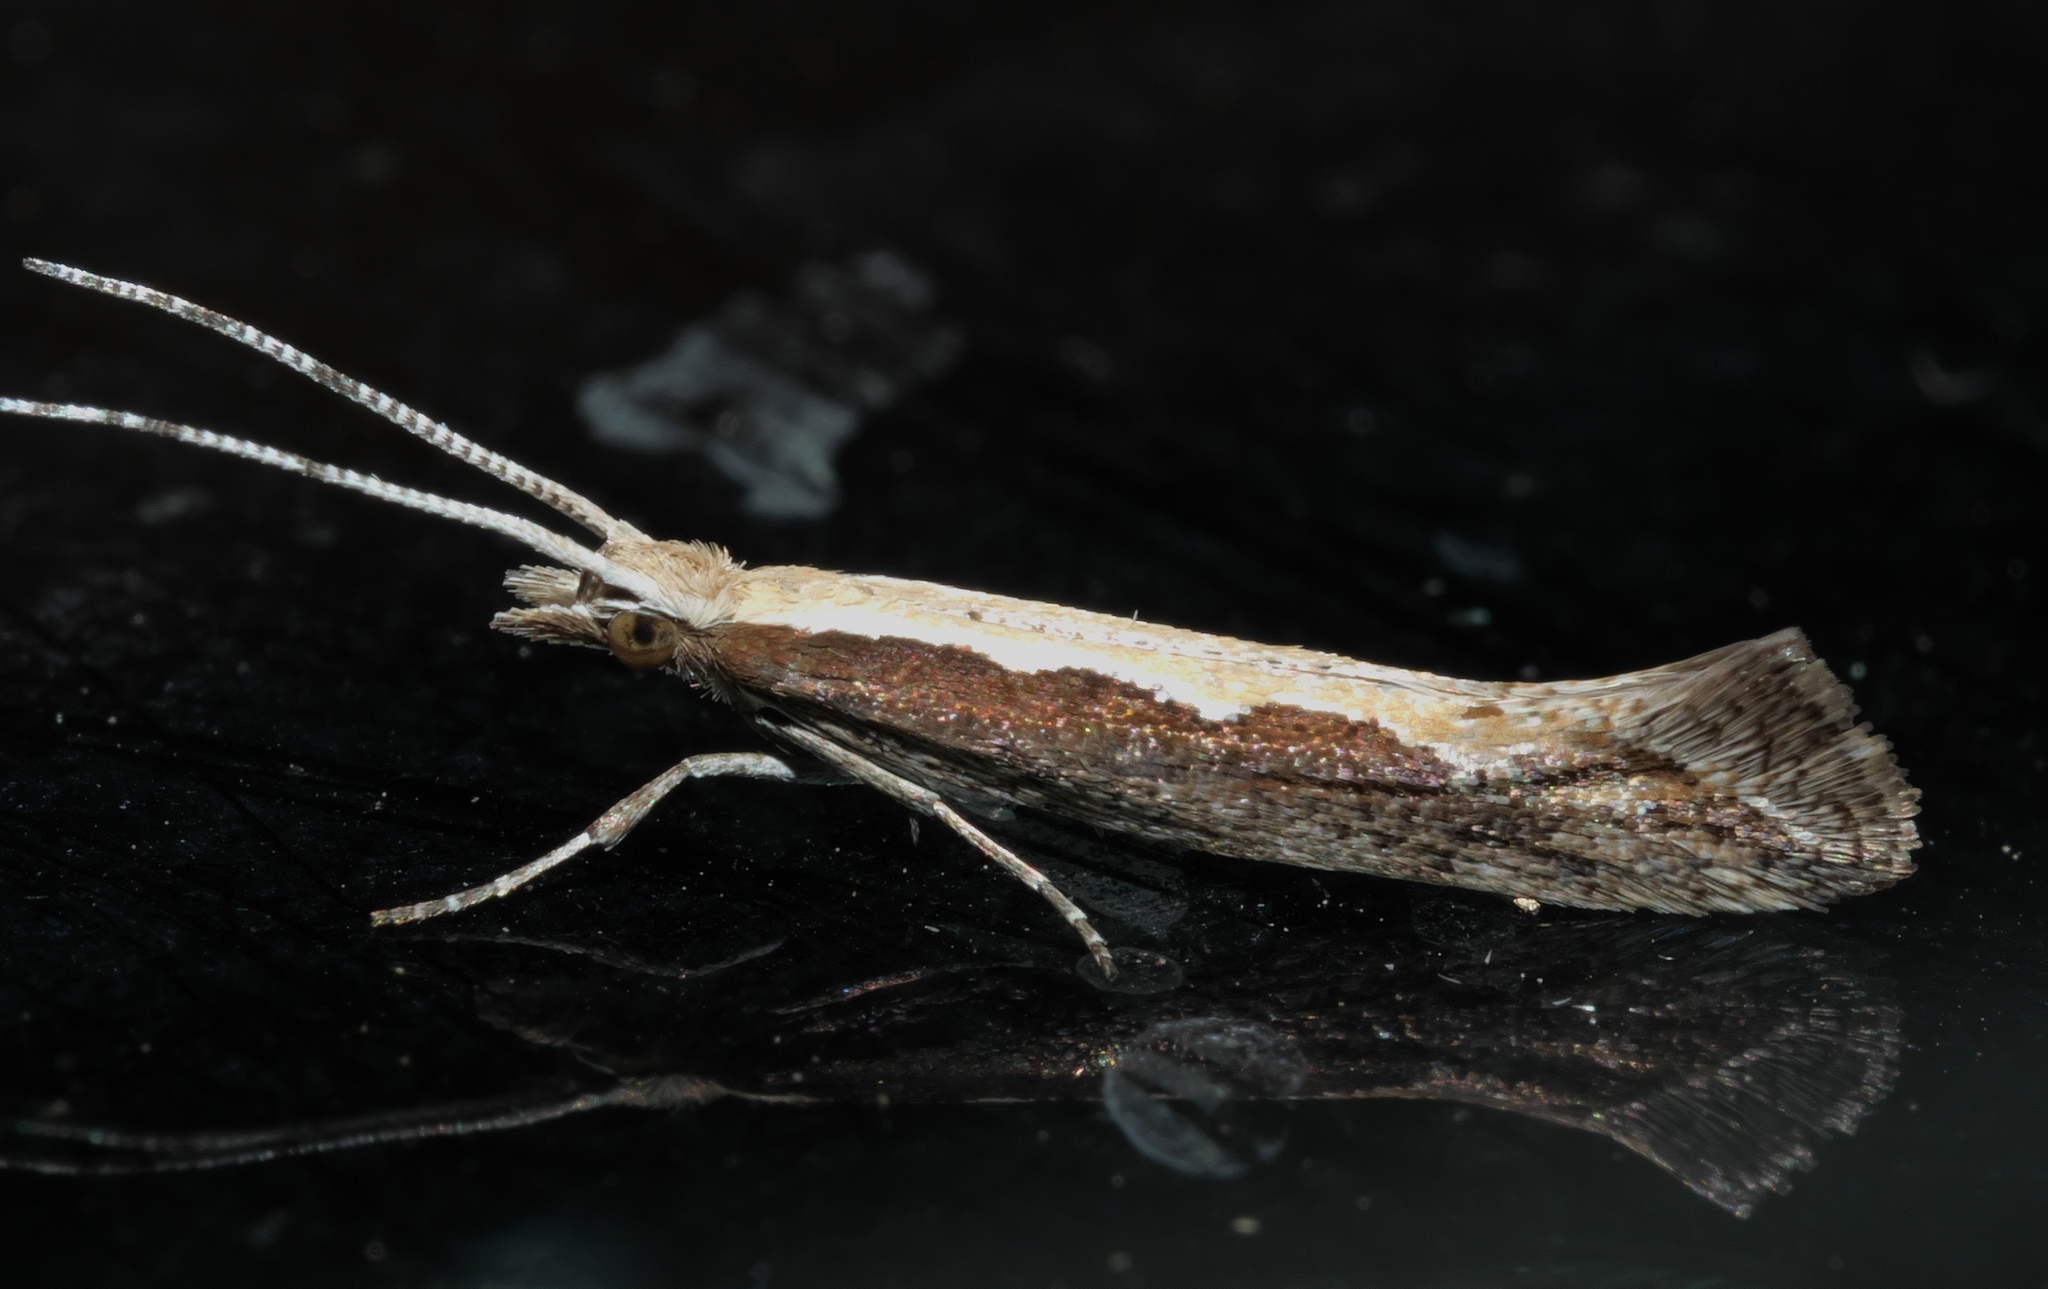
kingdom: Animalia
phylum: Arthropoda
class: Insecta
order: Lepidoptera
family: Plutellidae
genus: Plutella
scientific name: Plutella xylostella
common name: Diamond-back moth
